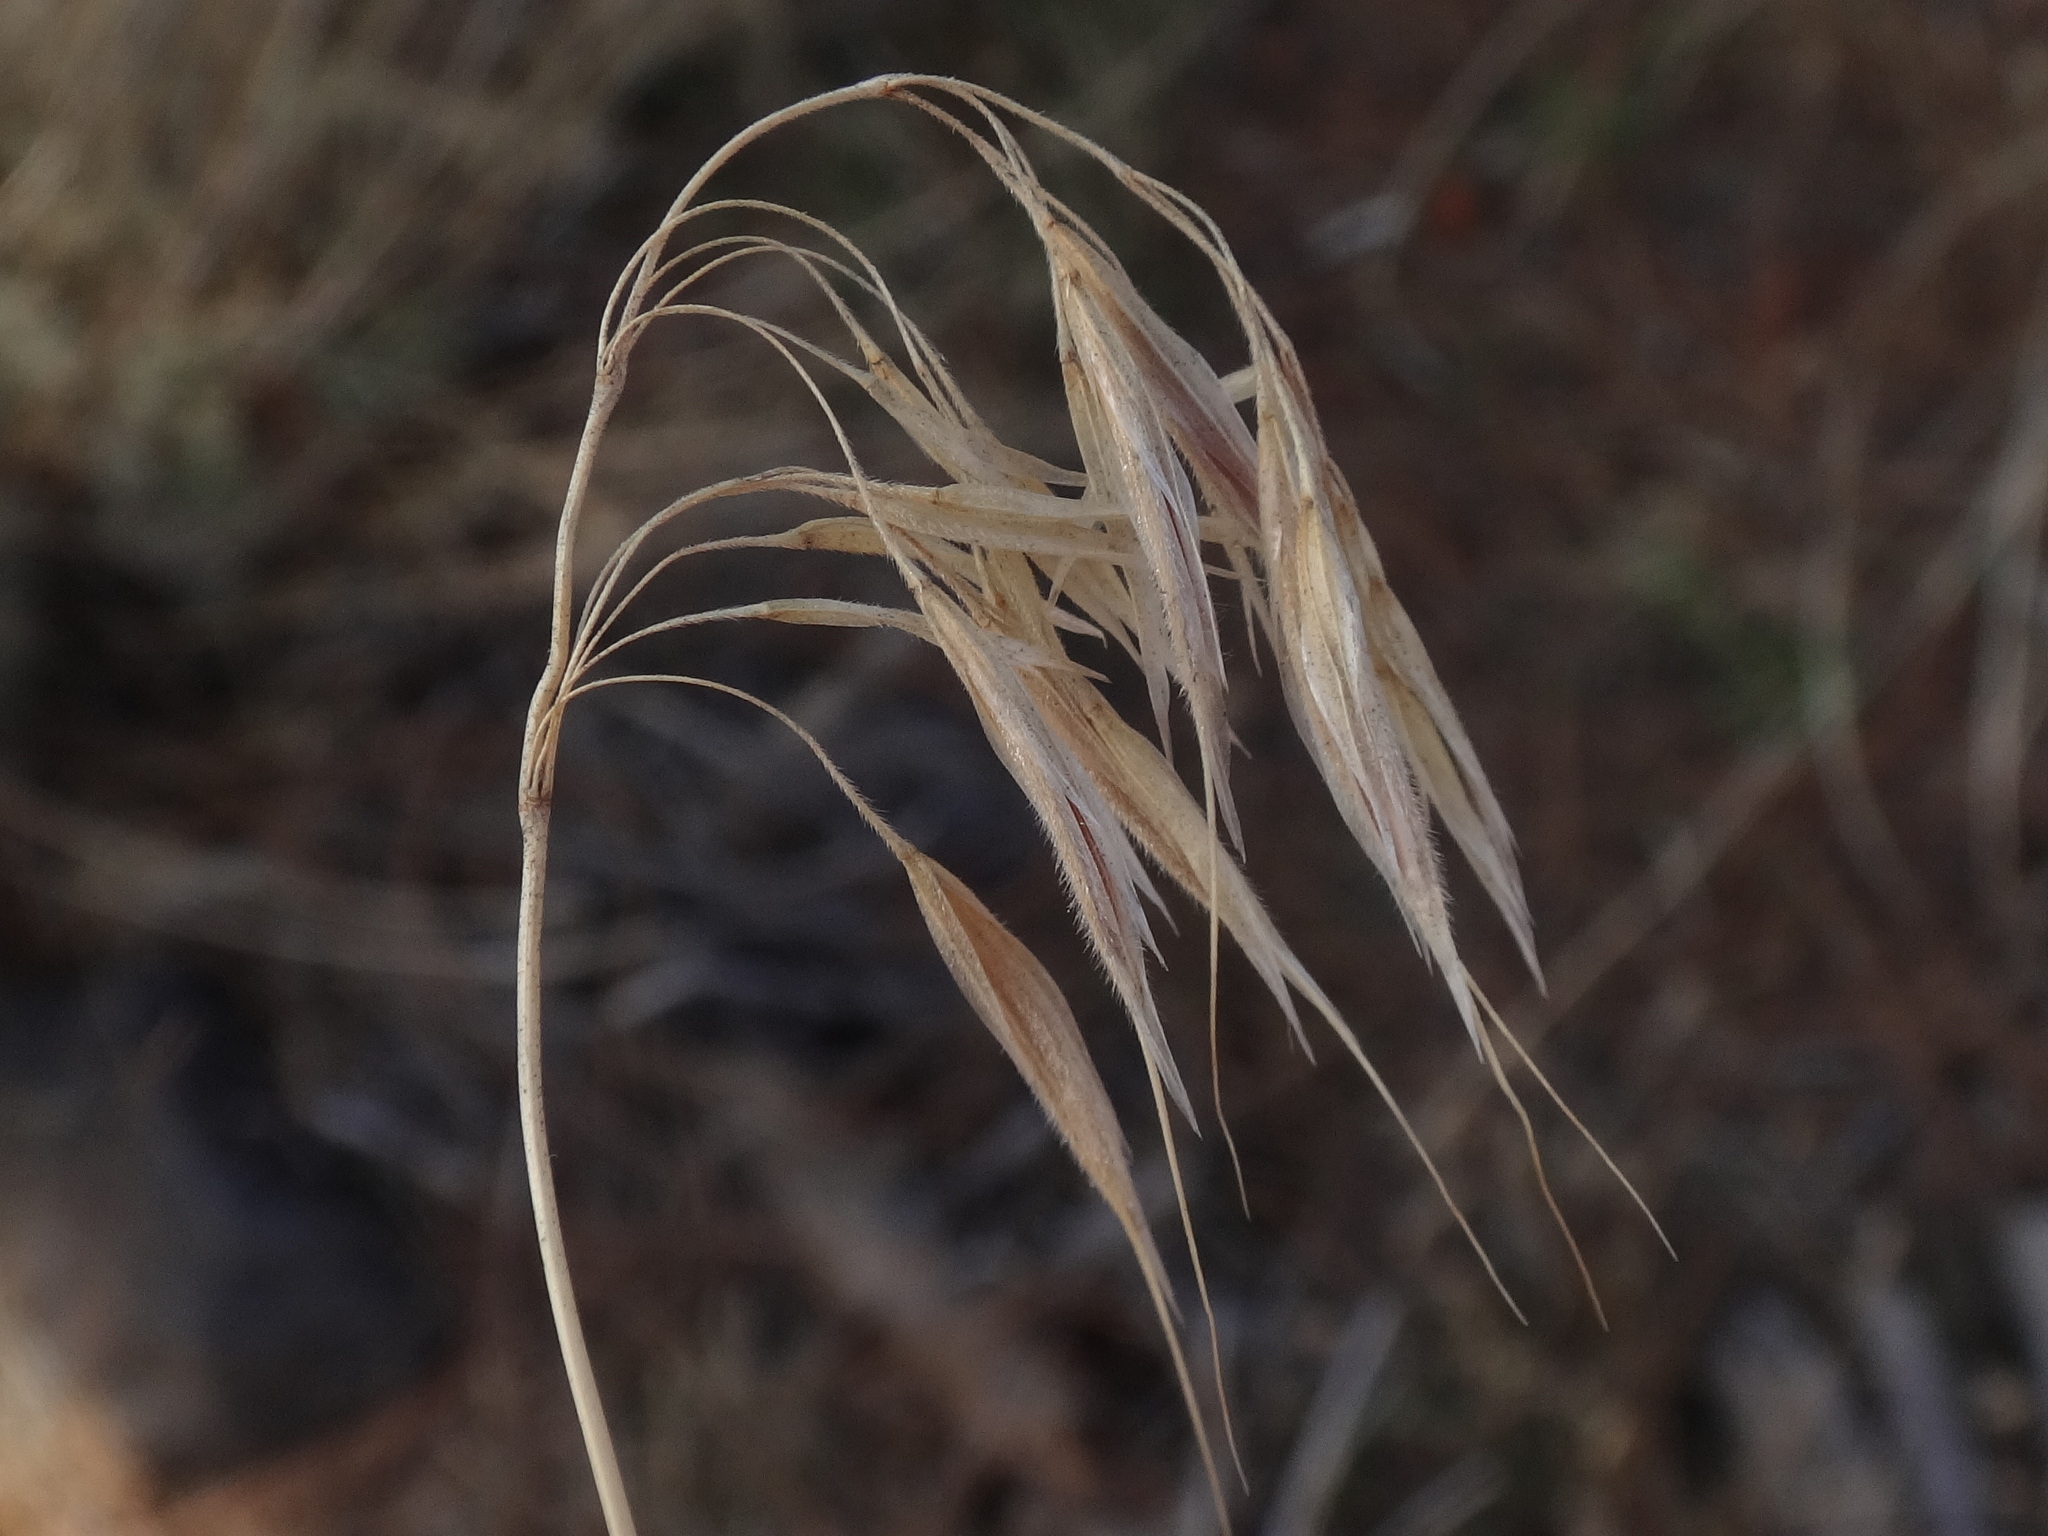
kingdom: Plantae
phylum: Tracheophyta
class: Liliopsida
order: Poales
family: Poaceae
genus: Bromus
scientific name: Bromus tectorum
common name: Cheatgrass
